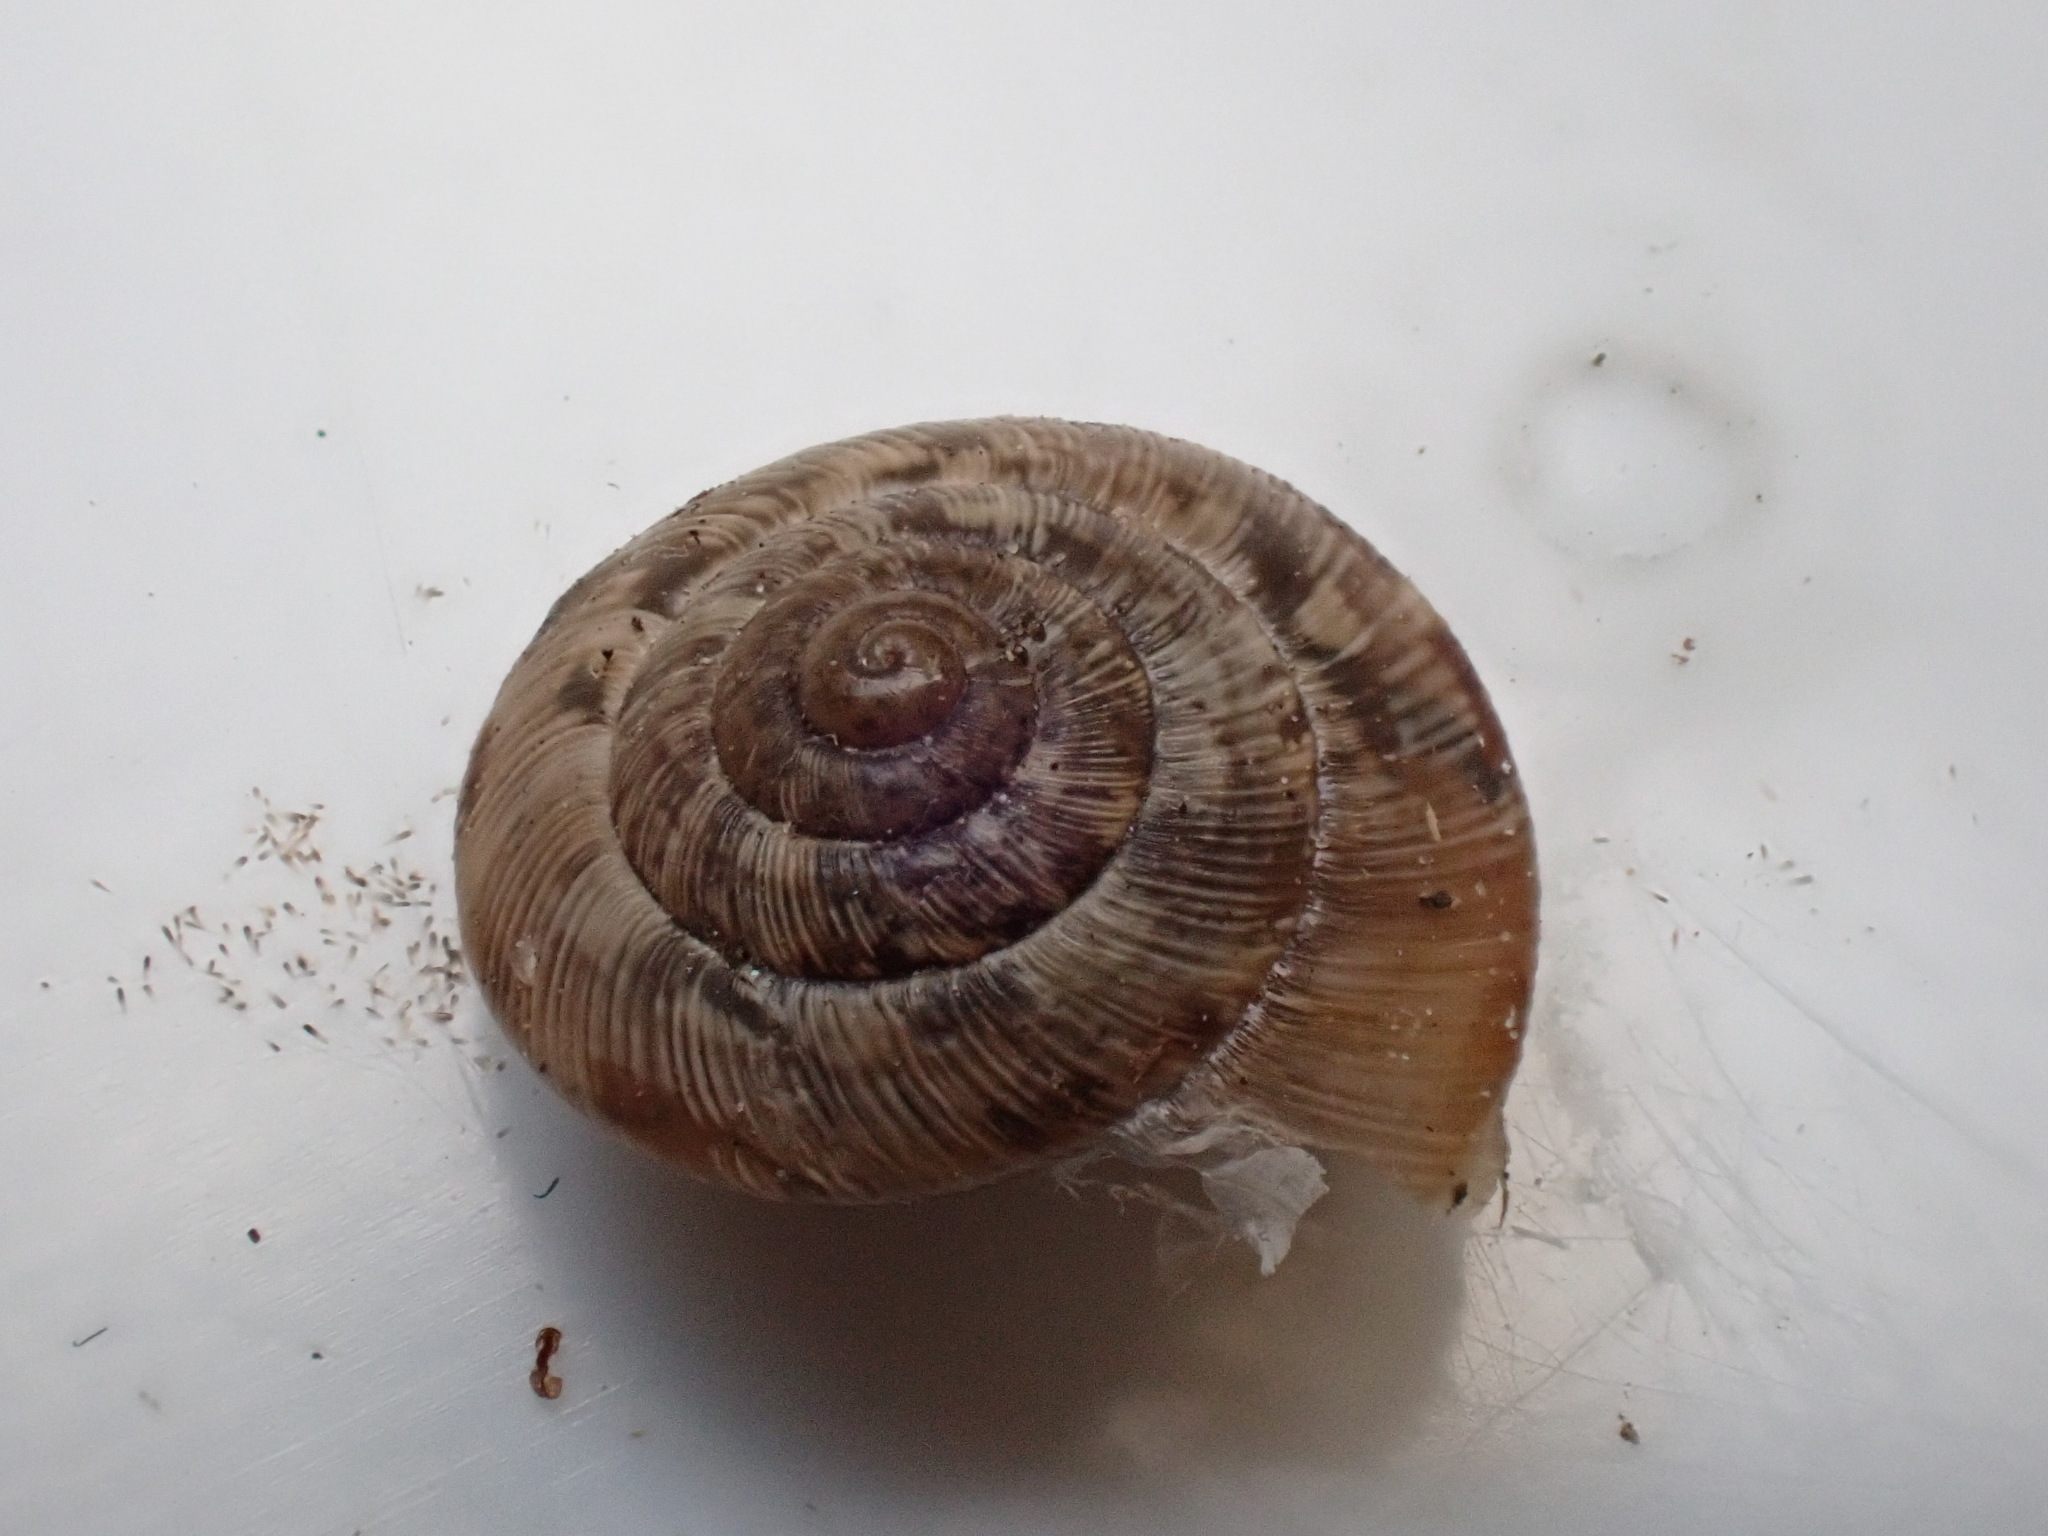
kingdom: Animalia
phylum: Mollusca
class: Gastropoda
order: Stylommatophora
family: Geomitridae
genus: Xeroplexa
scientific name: Xeroplexa intersecta
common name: Wrinkled snail
